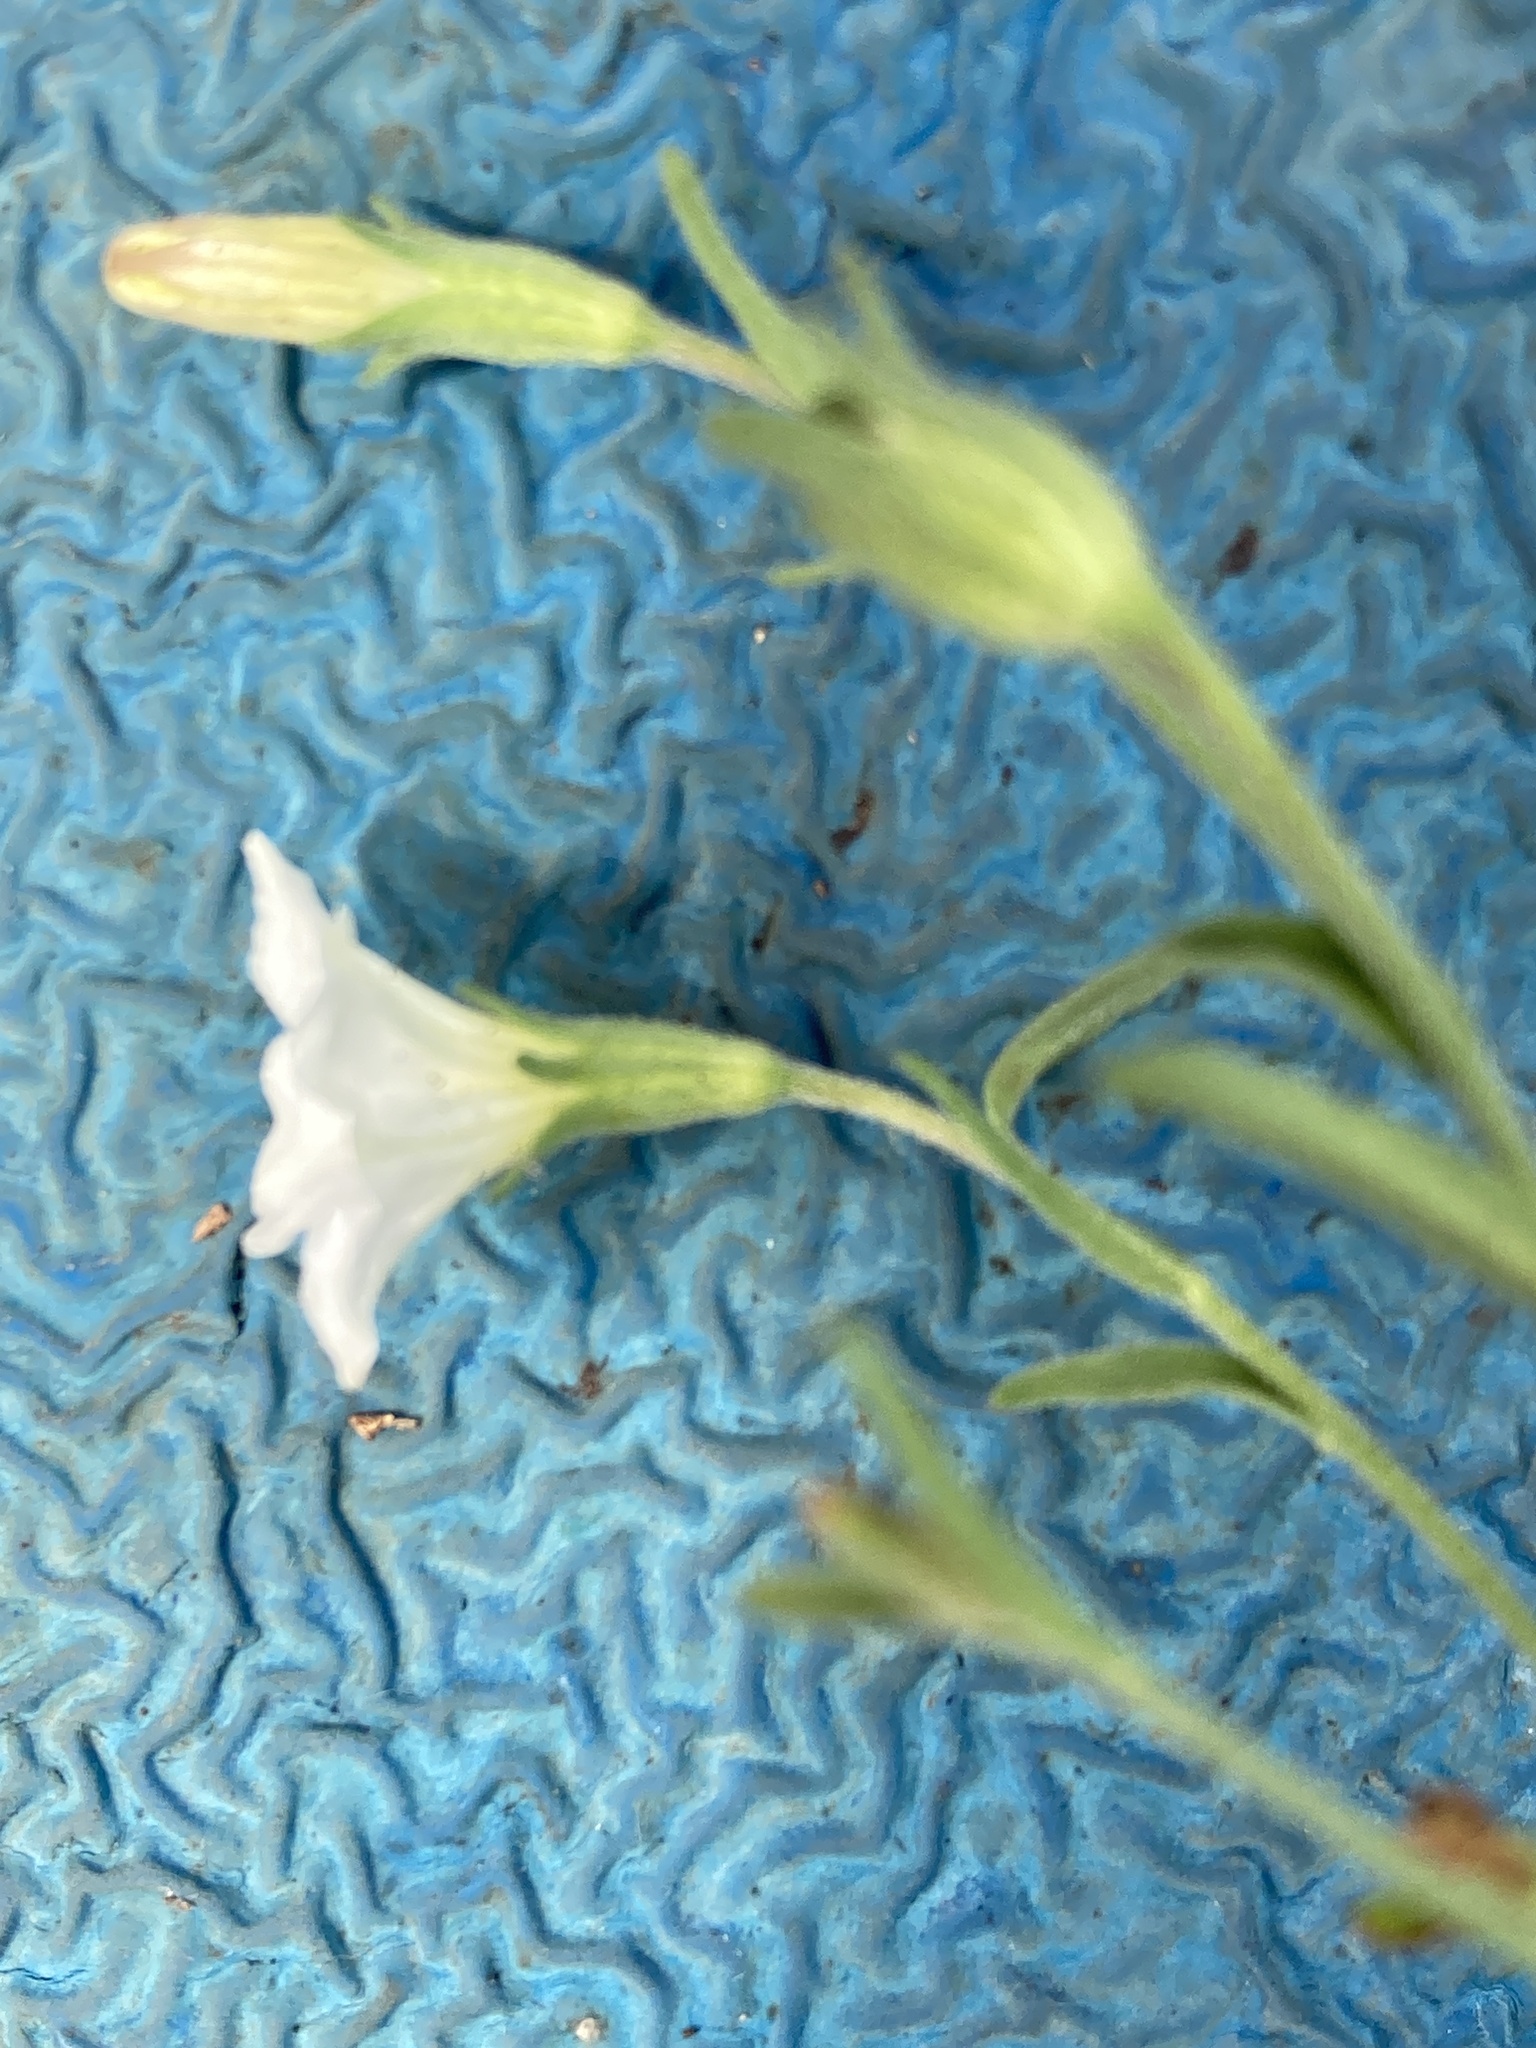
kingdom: Plantae
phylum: Tracheophyta
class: Magnoliopsida
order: Solanales
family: Solanaceae
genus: Salpiglossis
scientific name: Salpiglossis erecta
